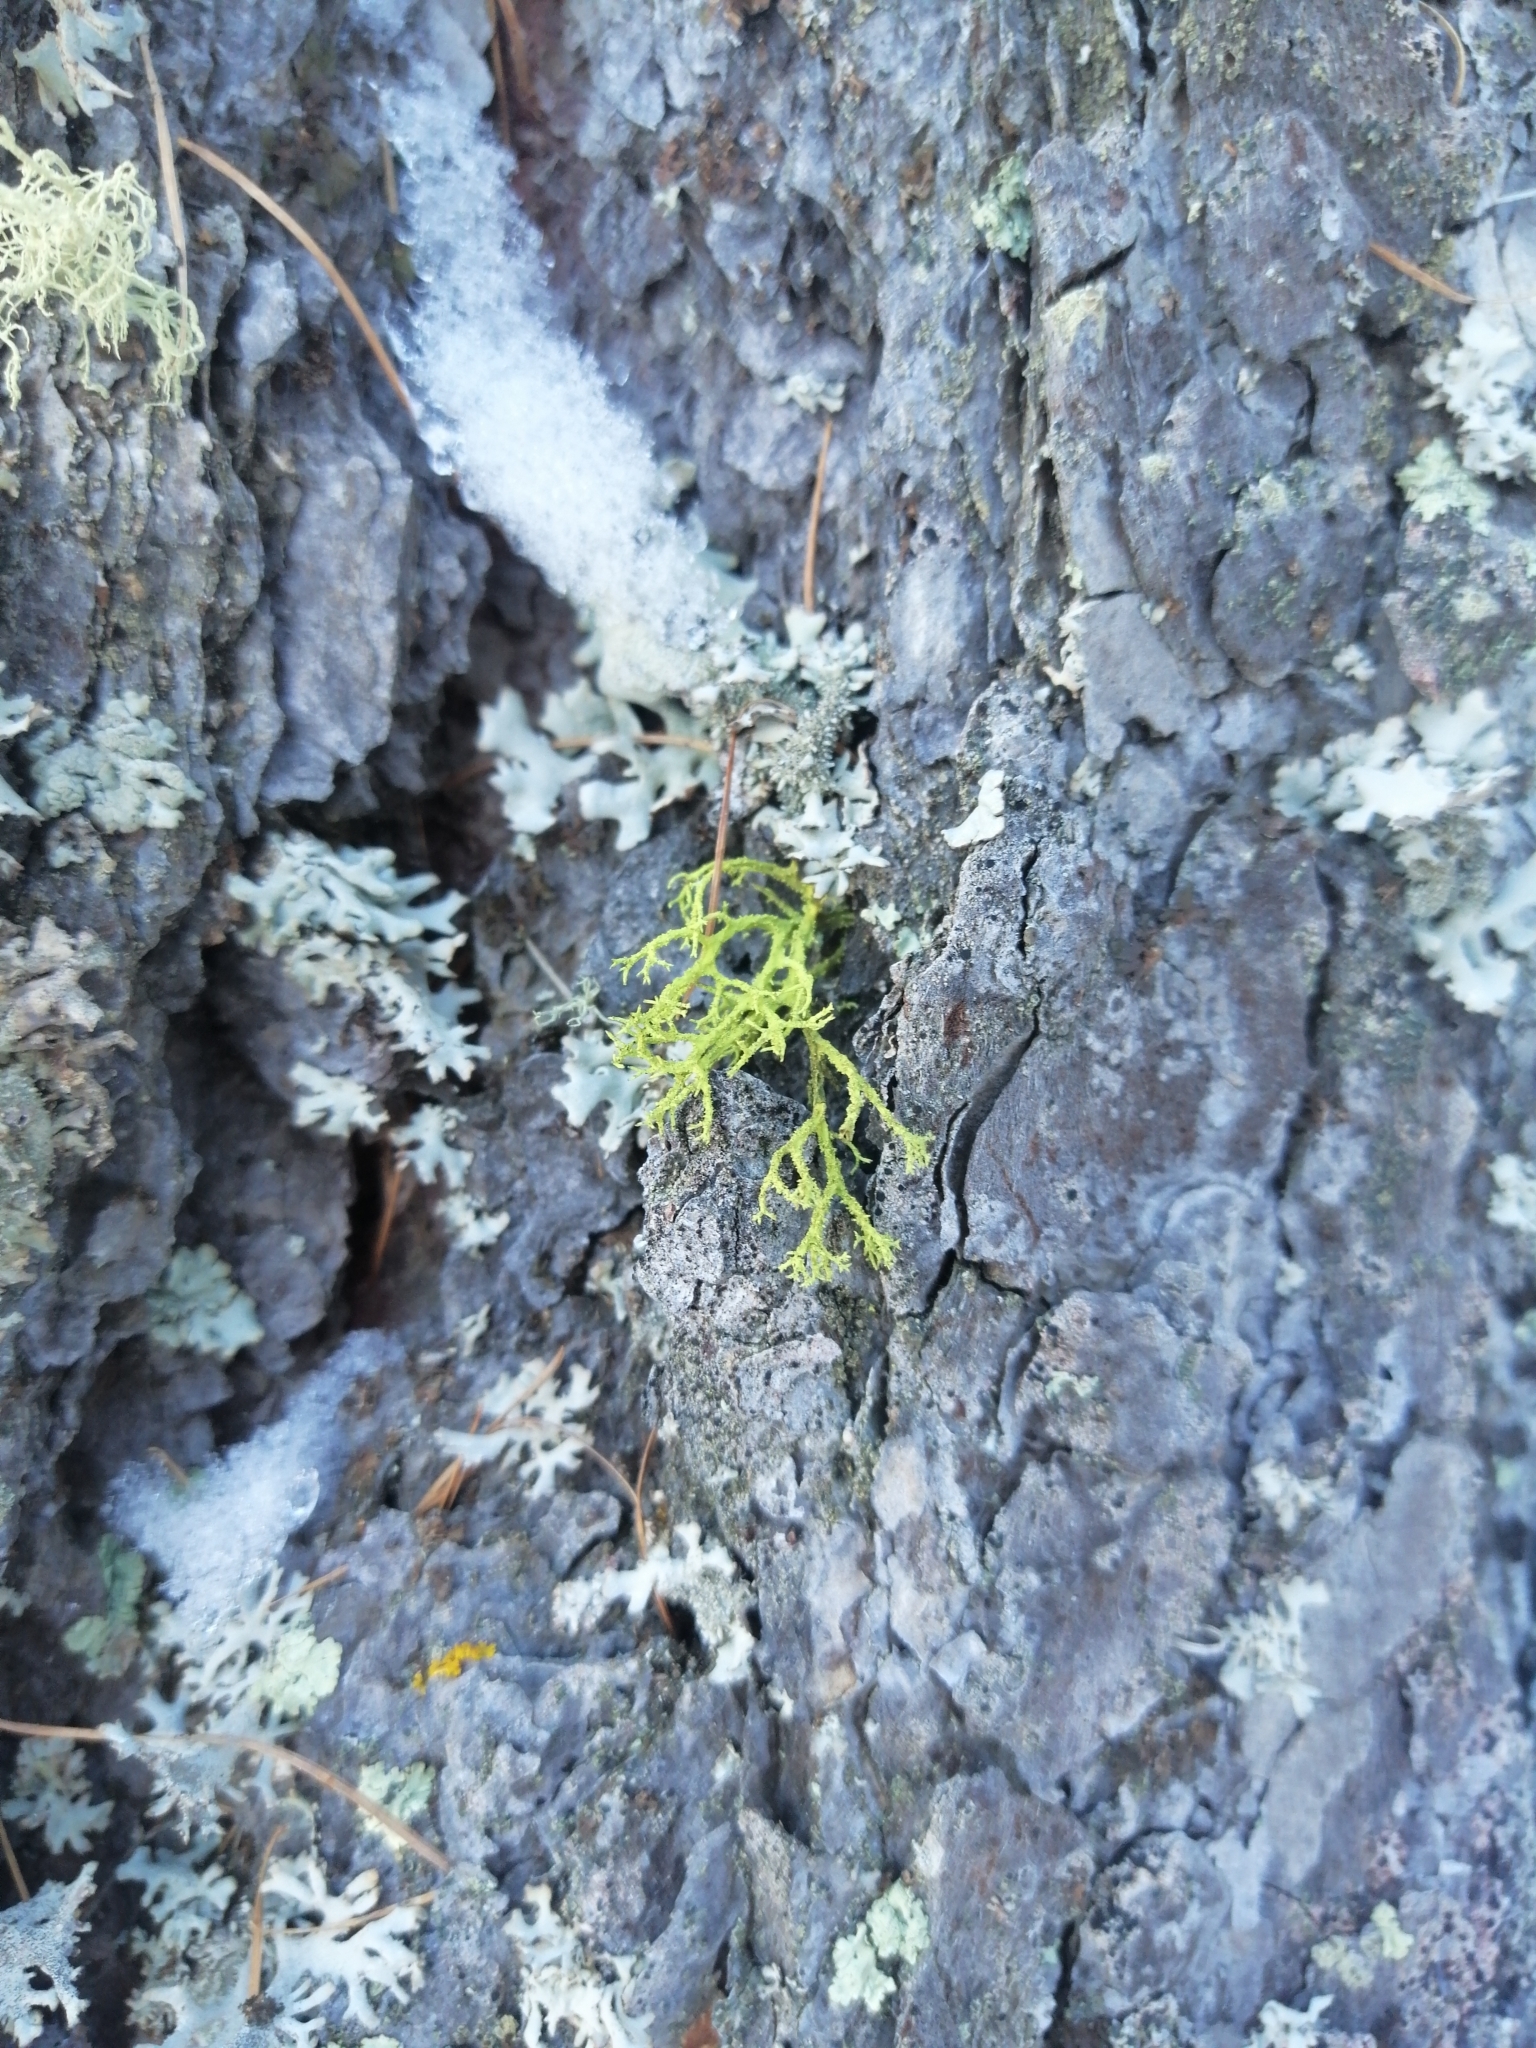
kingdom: Fungi
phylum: Ascomycota
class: Lecanoromycetes
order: Lecanorales
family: Parmeliaceae
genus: Letharia
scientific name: Letharia vulpina
